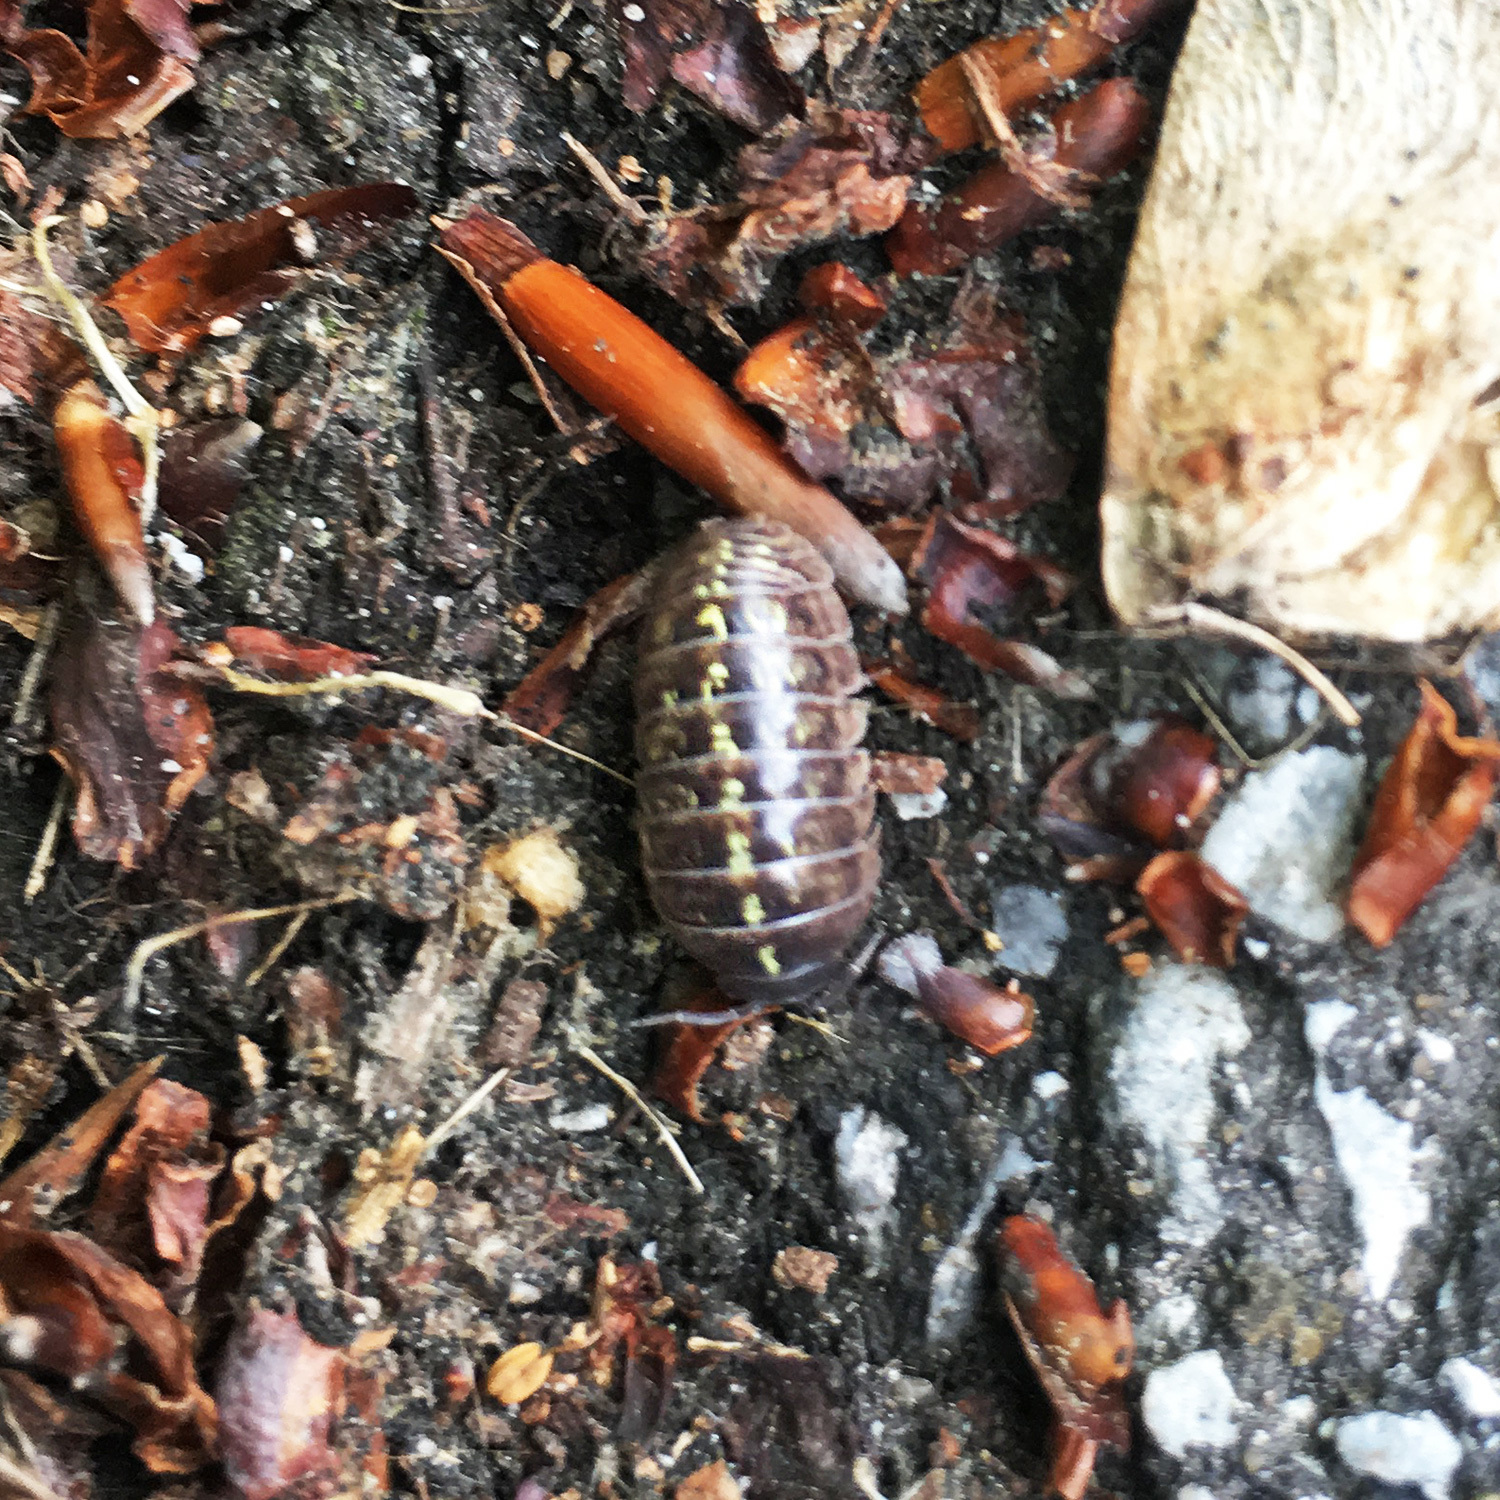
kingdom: Animalia
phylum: Arthropoda
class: Malacostraca
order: Isopoda
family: Armadillidiidae
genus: Armadillidium
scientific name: Armadillidium vulgare
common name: Common pill woodlouse
